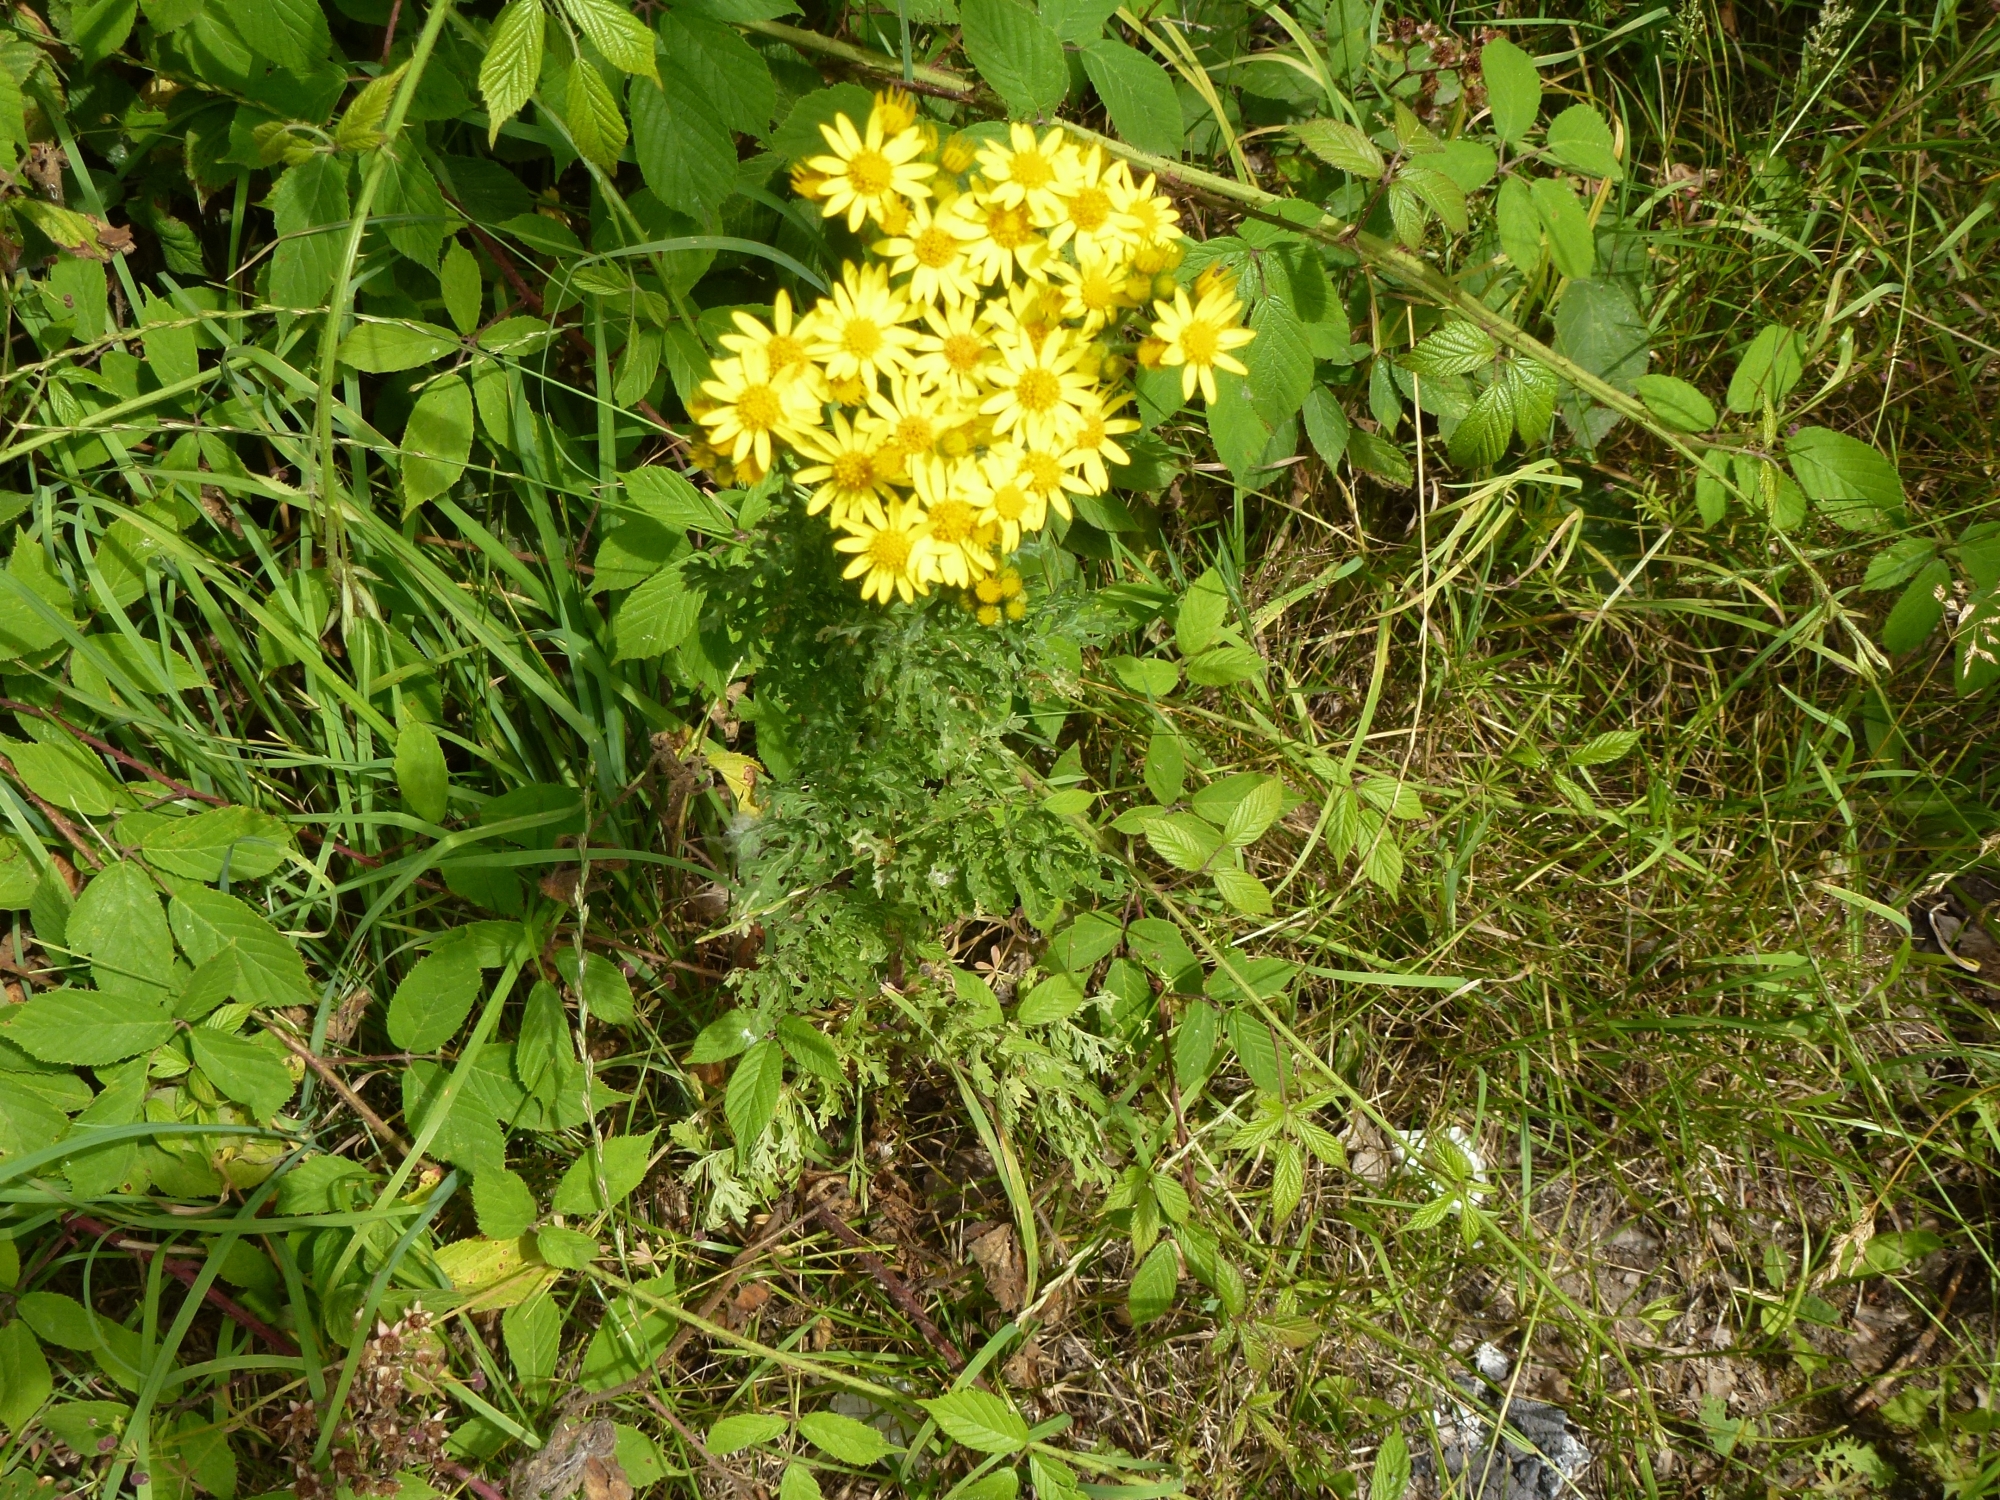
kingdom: Plantae
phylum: Tracheophyta
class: Magnoliopsida
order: Asterales
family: Asteraceae
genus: Jacobaea
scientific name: Jacobaea vulgaris
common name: Stinking willie
